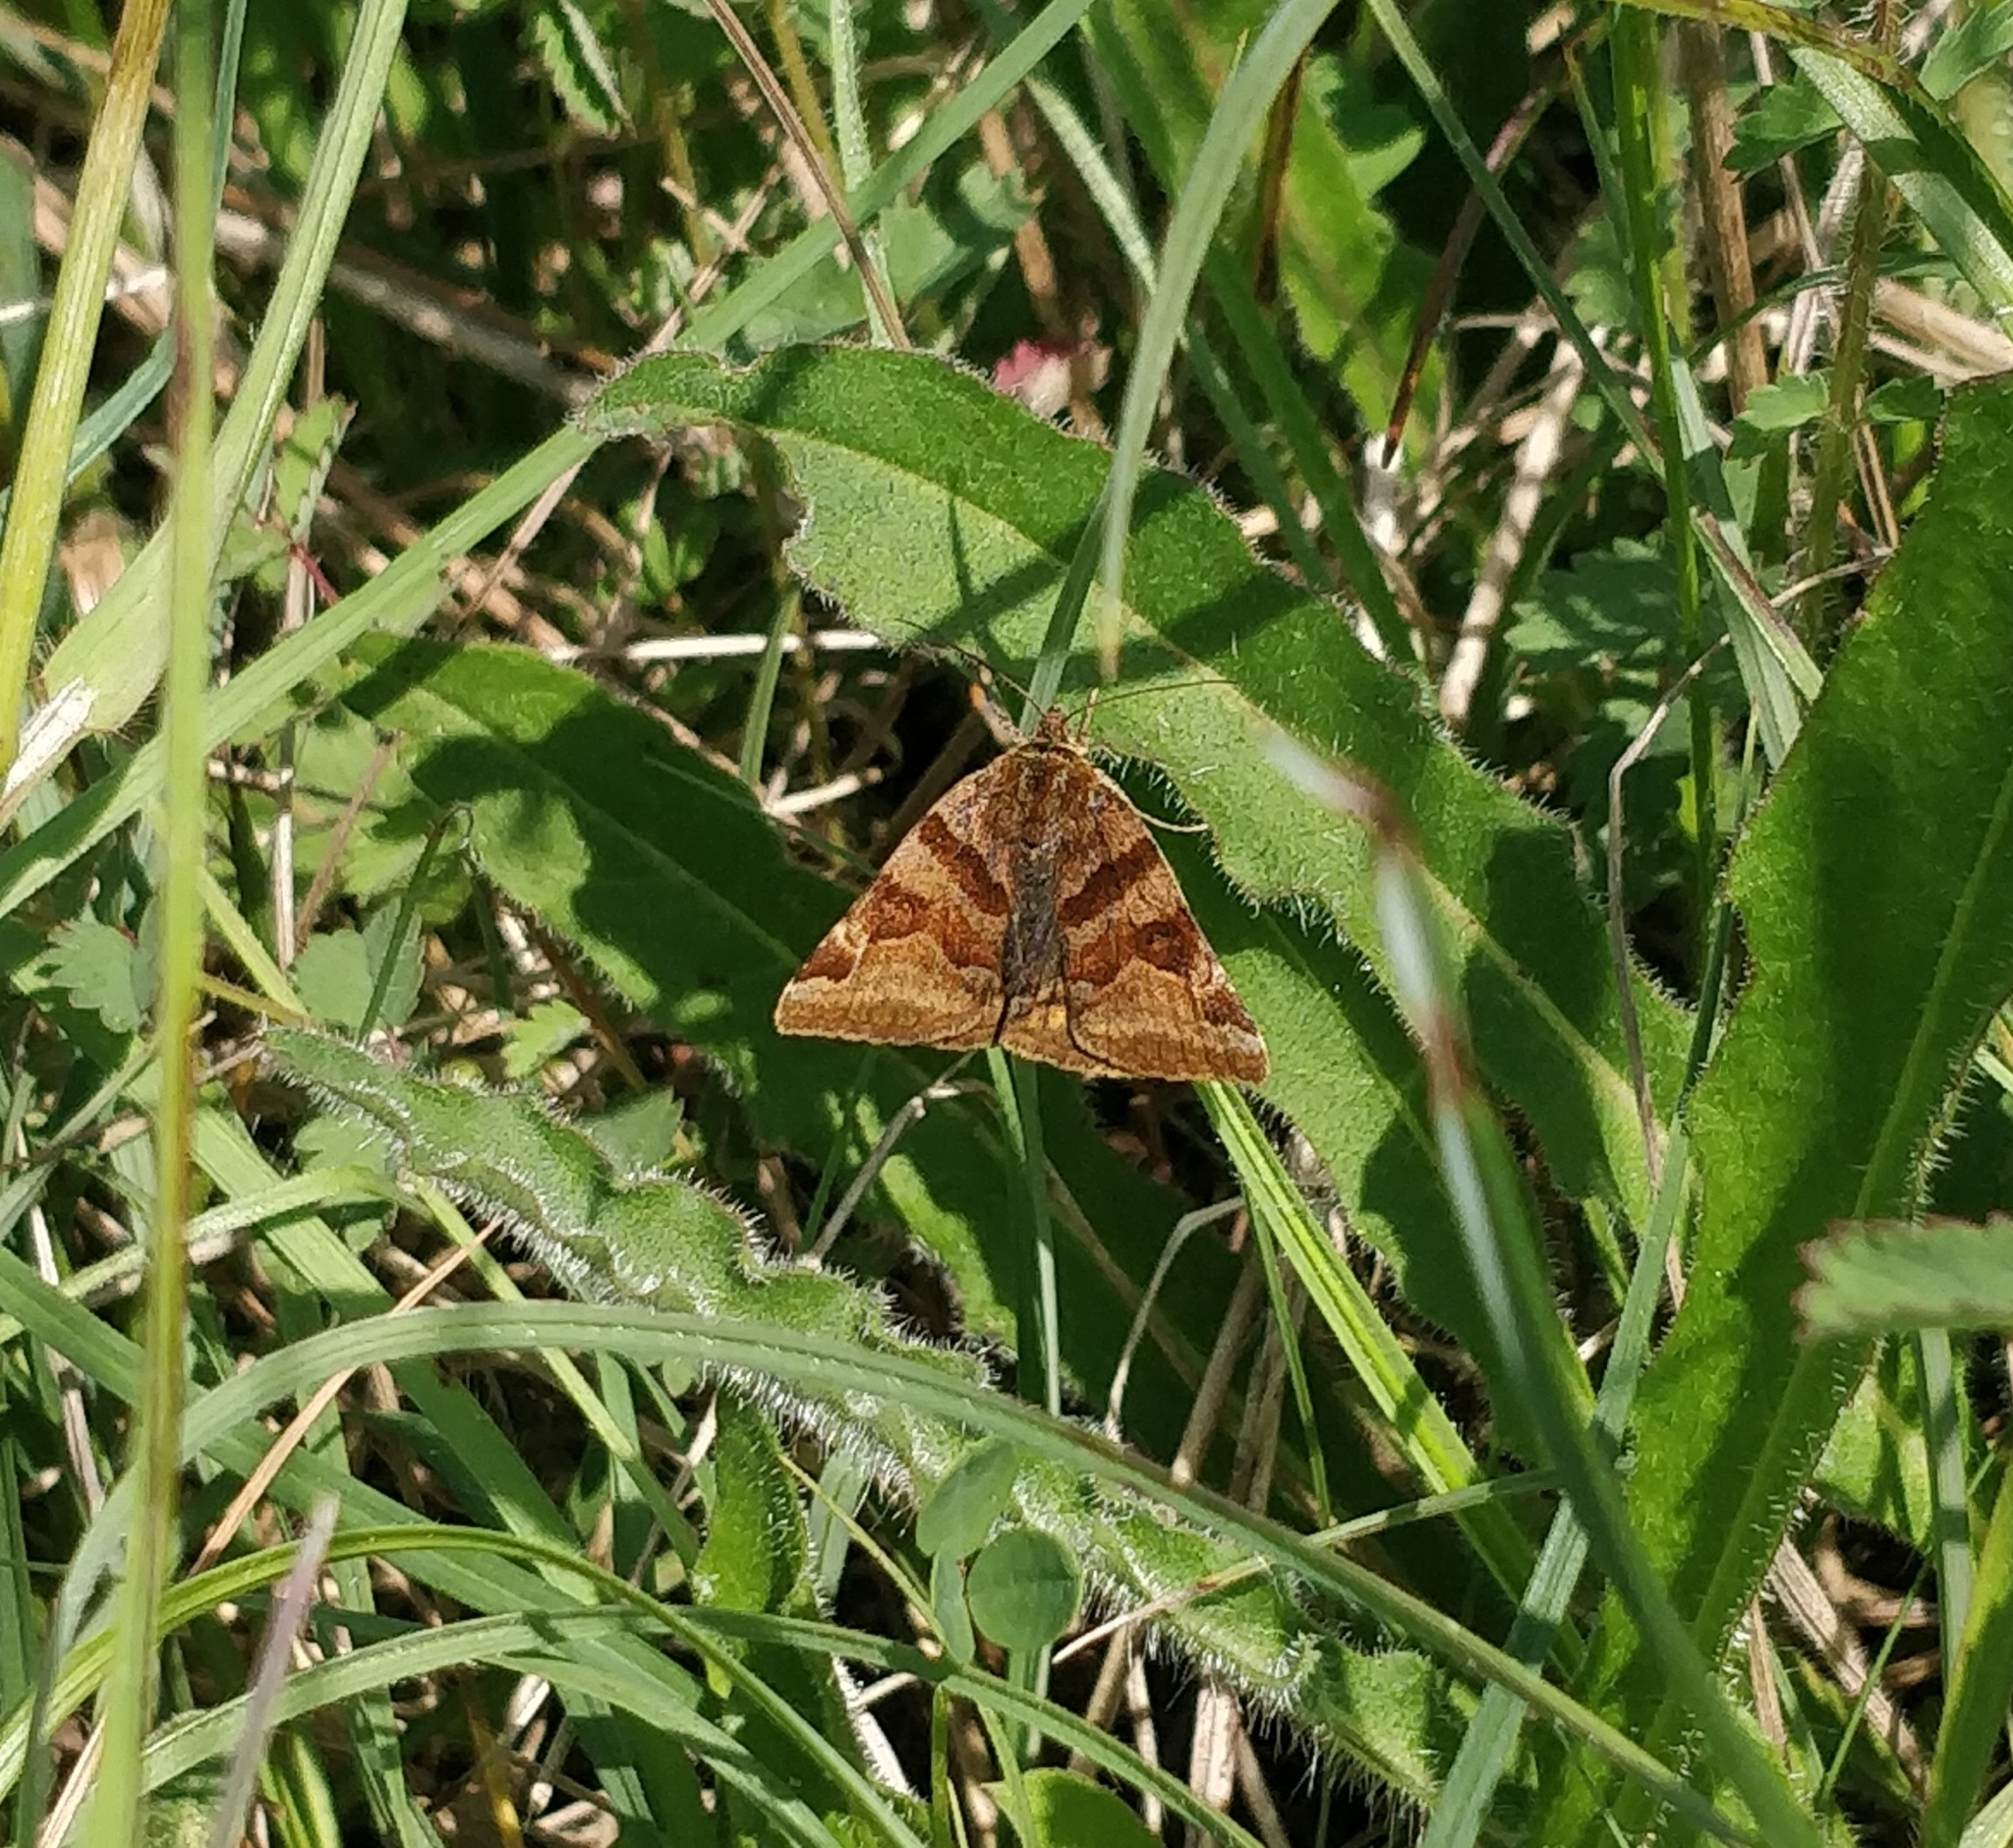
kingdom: Animalia
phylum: Arthropoda
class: Insecta
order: Lepidoptera
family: Erebidae
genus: Euclidia
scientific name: Euclidia glyphica
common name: Burnet companion
